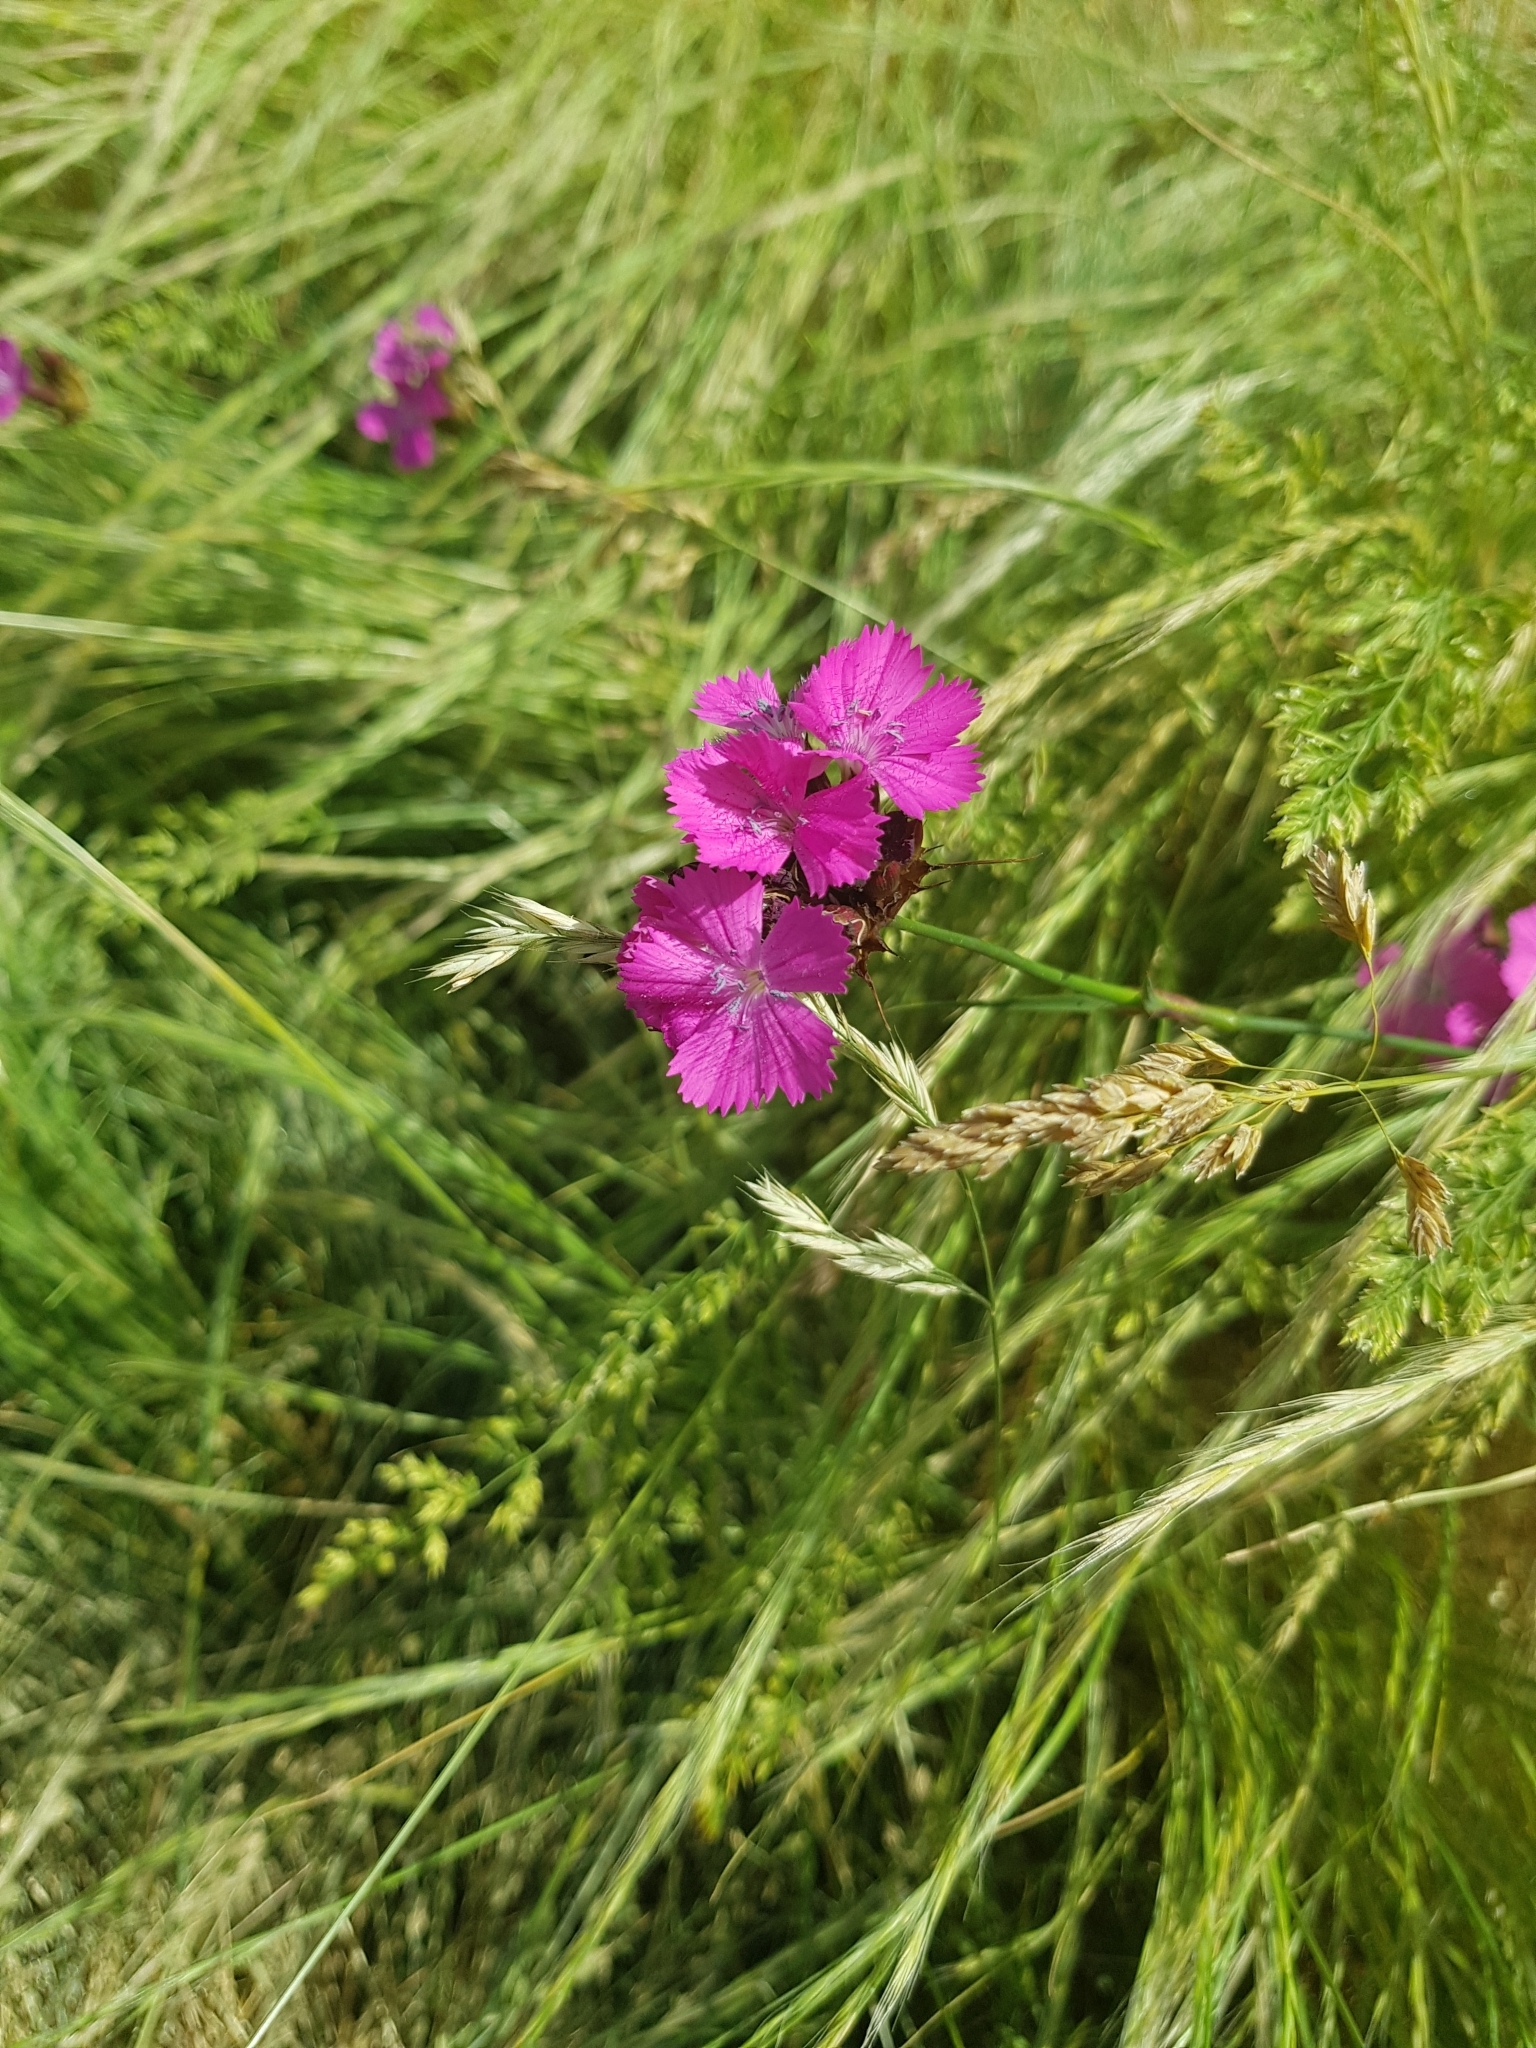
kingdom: Plantae
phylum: Tracheophyta
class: Magnoliopsida
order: Caryophyllales
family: Caryophyllaceae
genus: Dianthus
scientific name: Dianthus carthusianorum
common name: Carthusian pink
